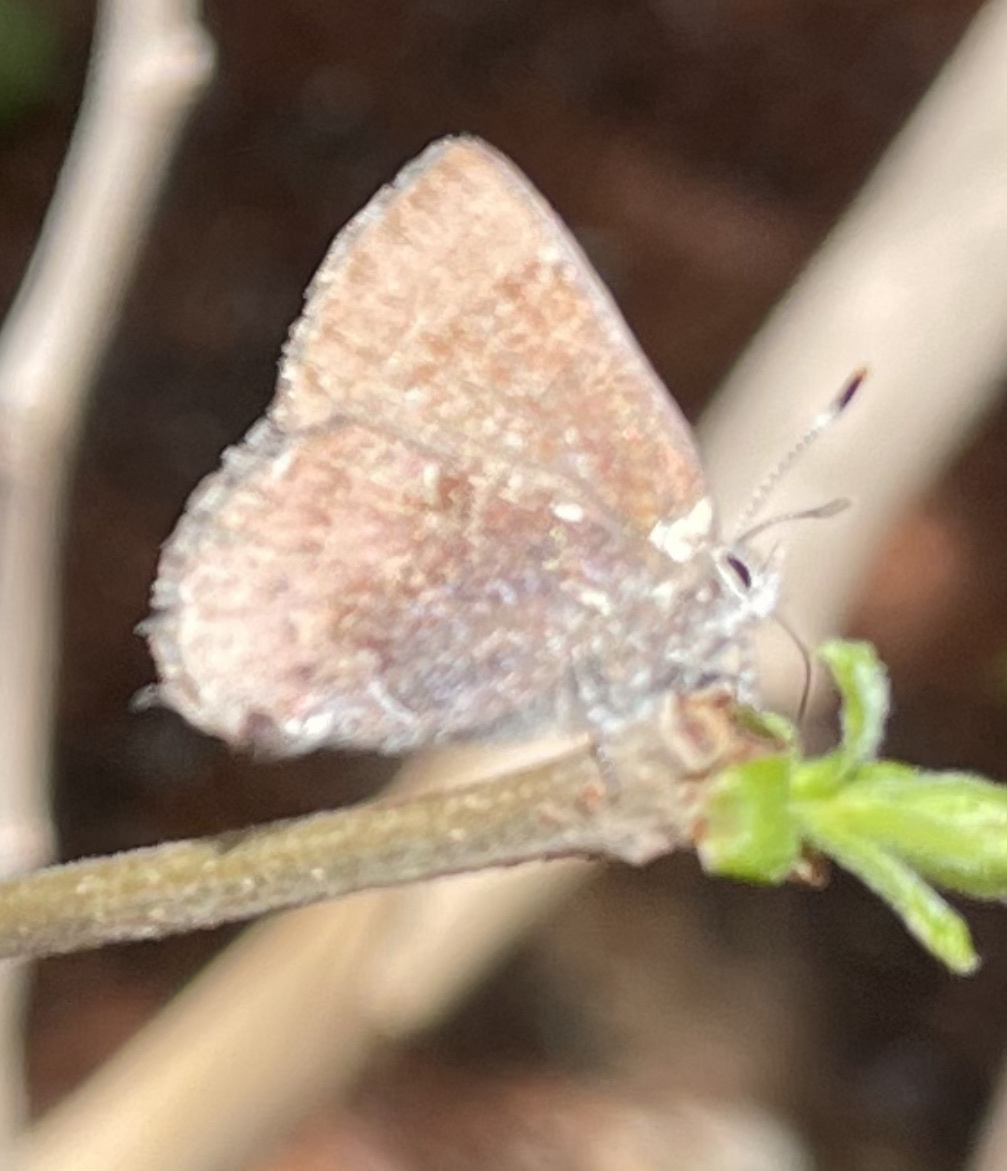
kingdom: Animalia
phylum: Arthropoda
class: Insecta
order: Lepidoptera
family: Lycaenidae
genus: Incisalia
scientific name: Incisalia henrici
